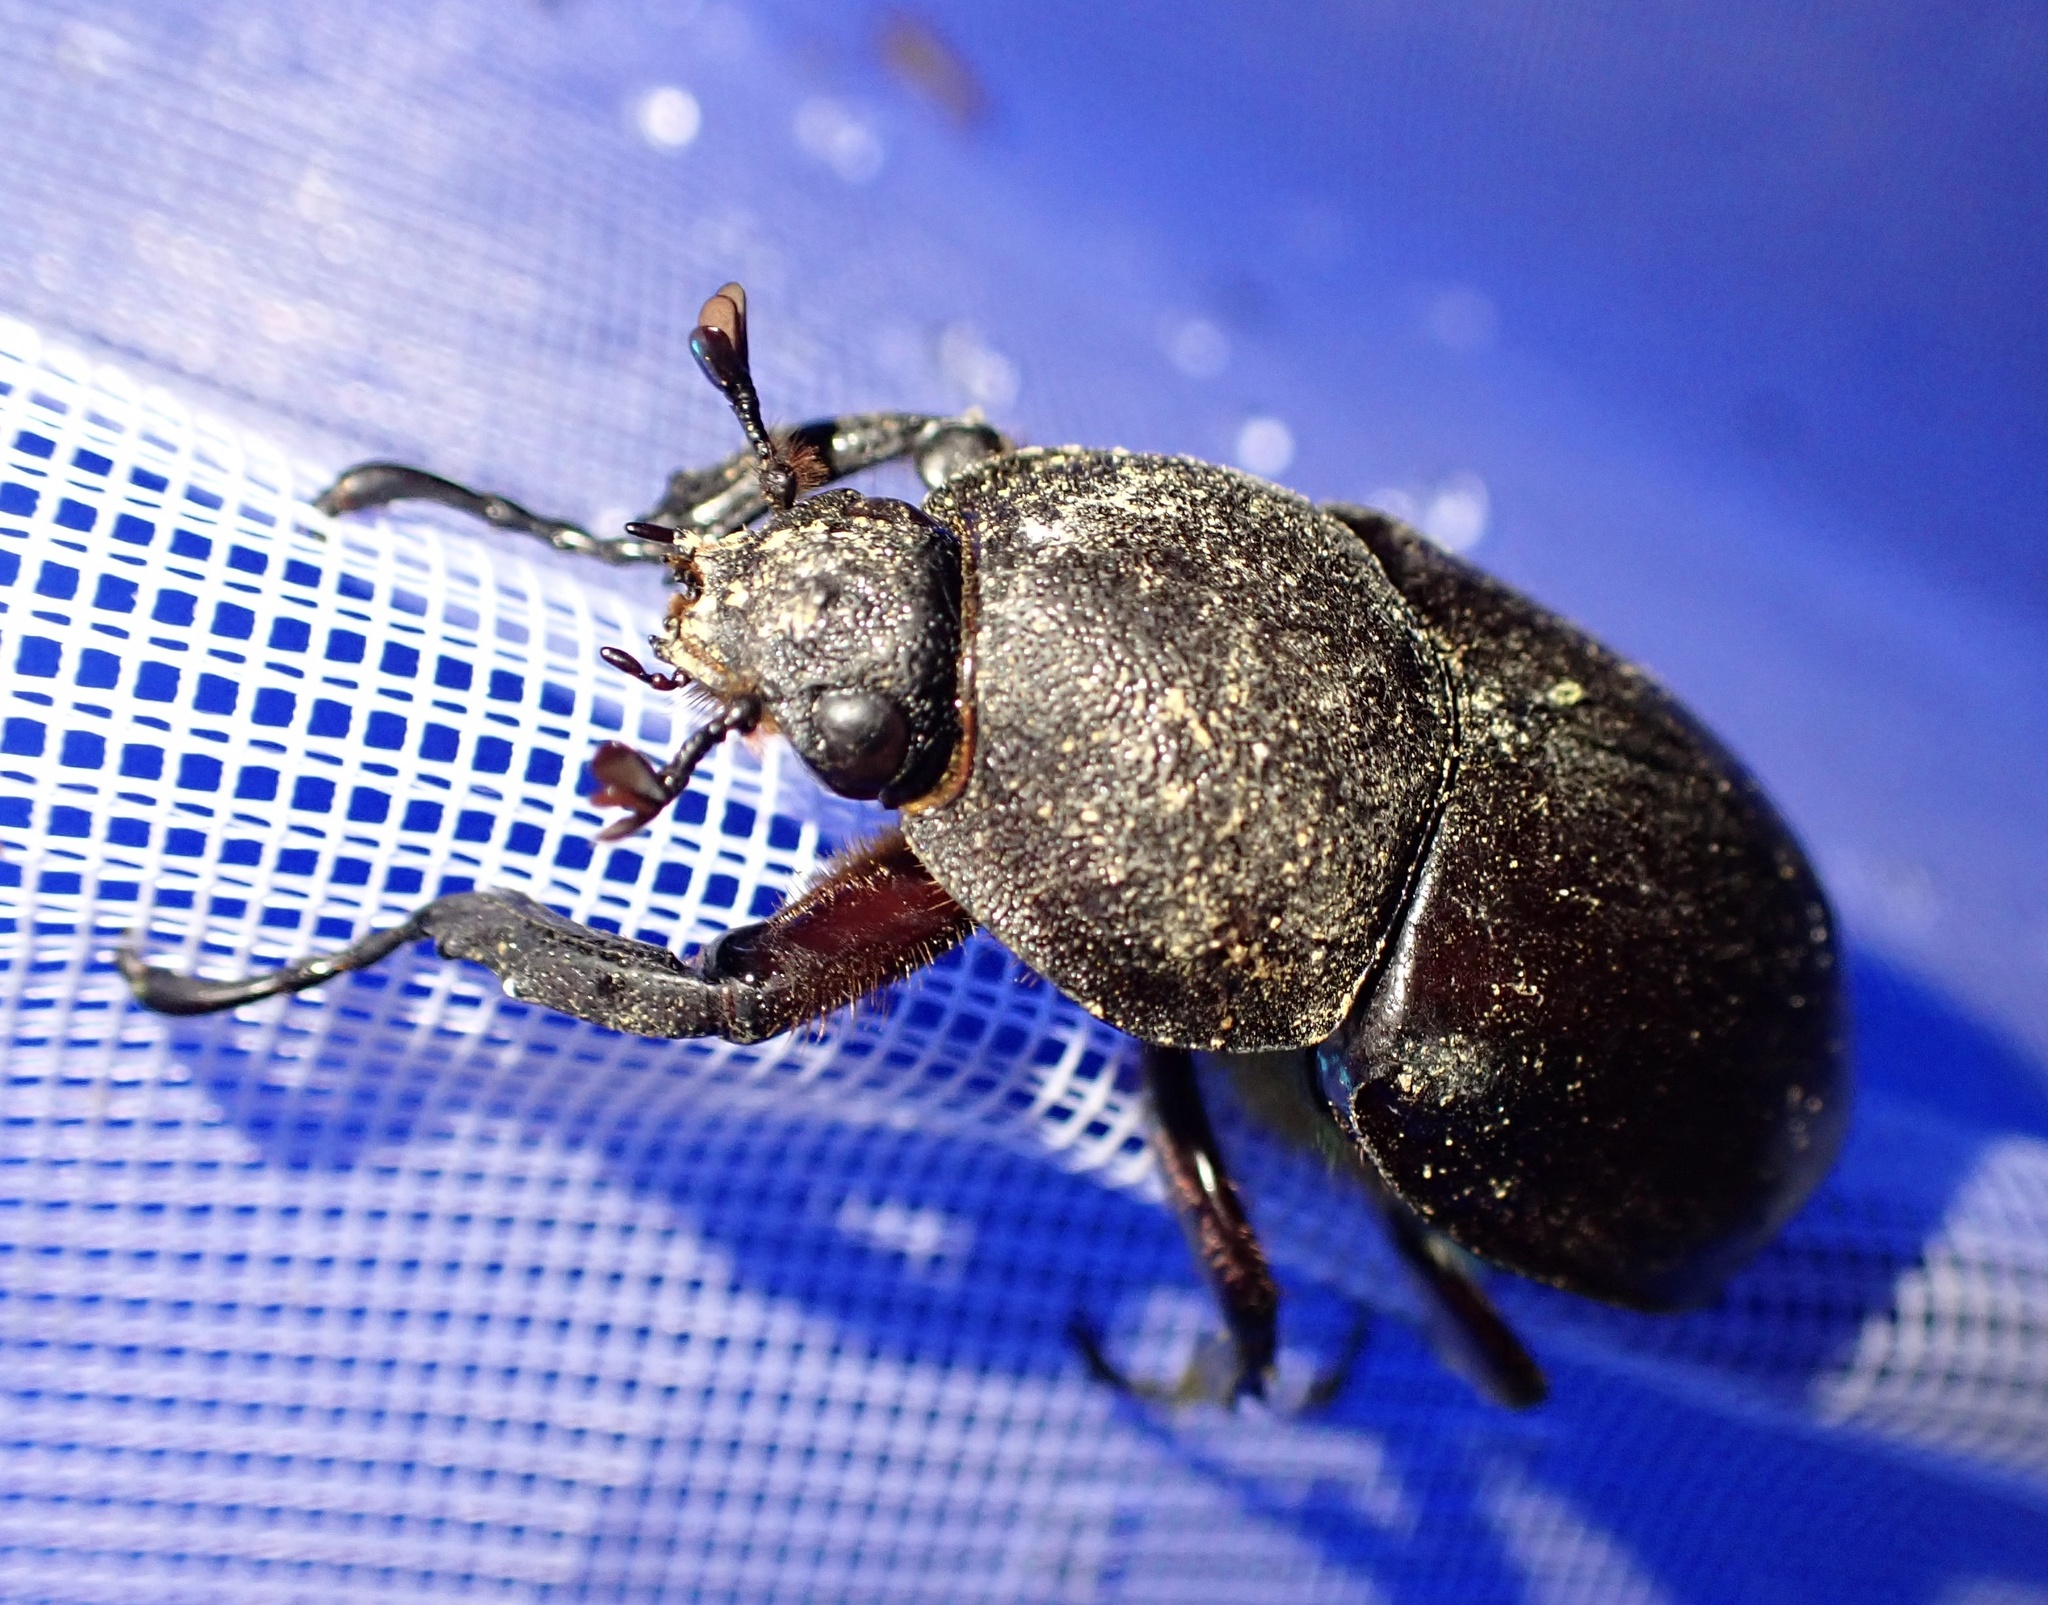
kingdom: Animalia
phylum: Arthropoda
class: Insecta
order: Coleoptera
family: Scarabaeidae
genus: Xylotrupes
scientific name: Xylotrupes carinulus
